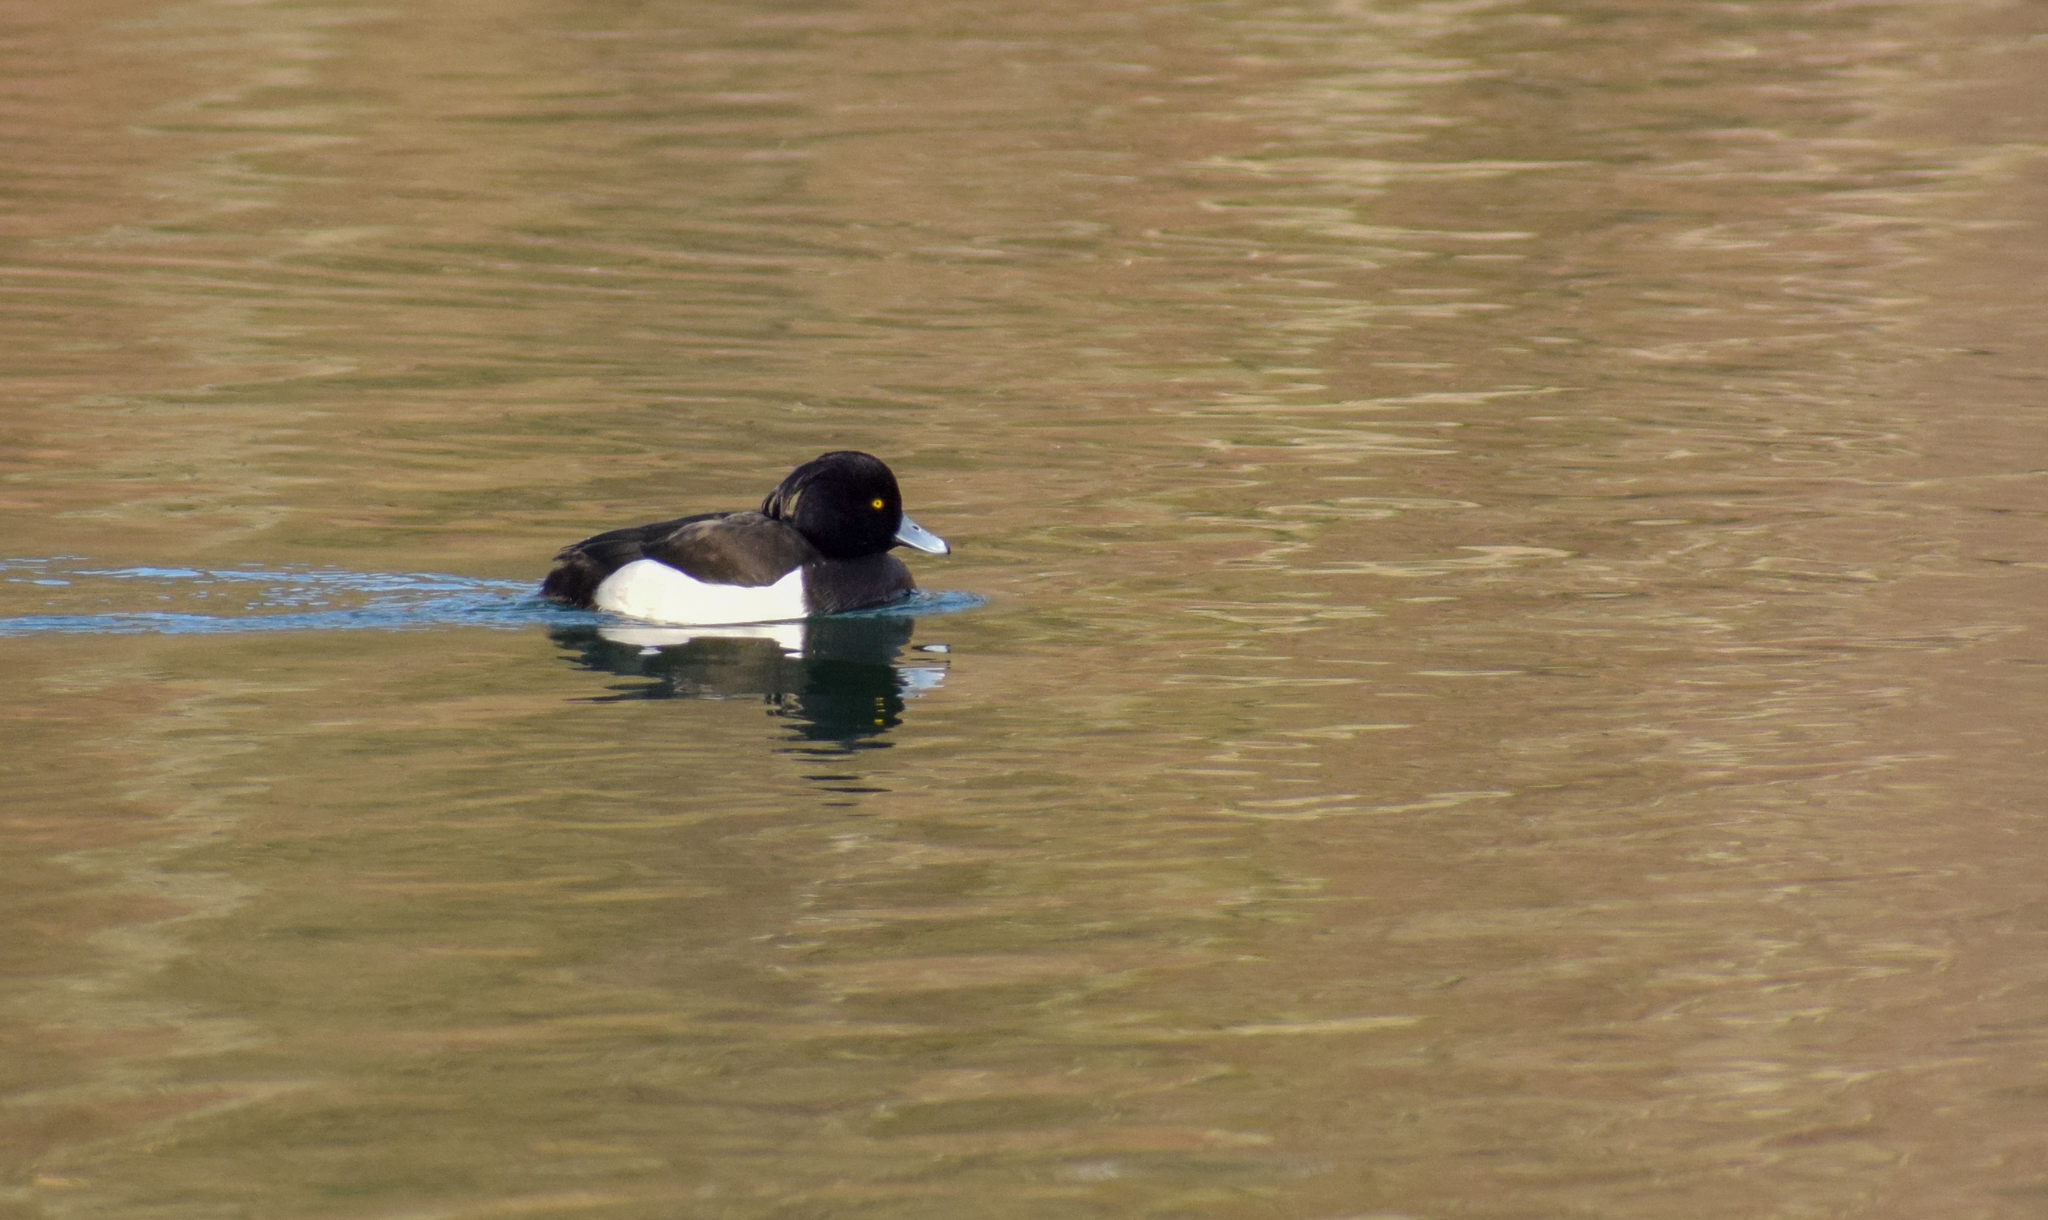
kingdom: Animalia
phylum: Chordata
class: Aves
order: Anseriformes
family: Anatidae
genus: Aythya
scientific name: Aythya fuligula
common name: Tufted duck
